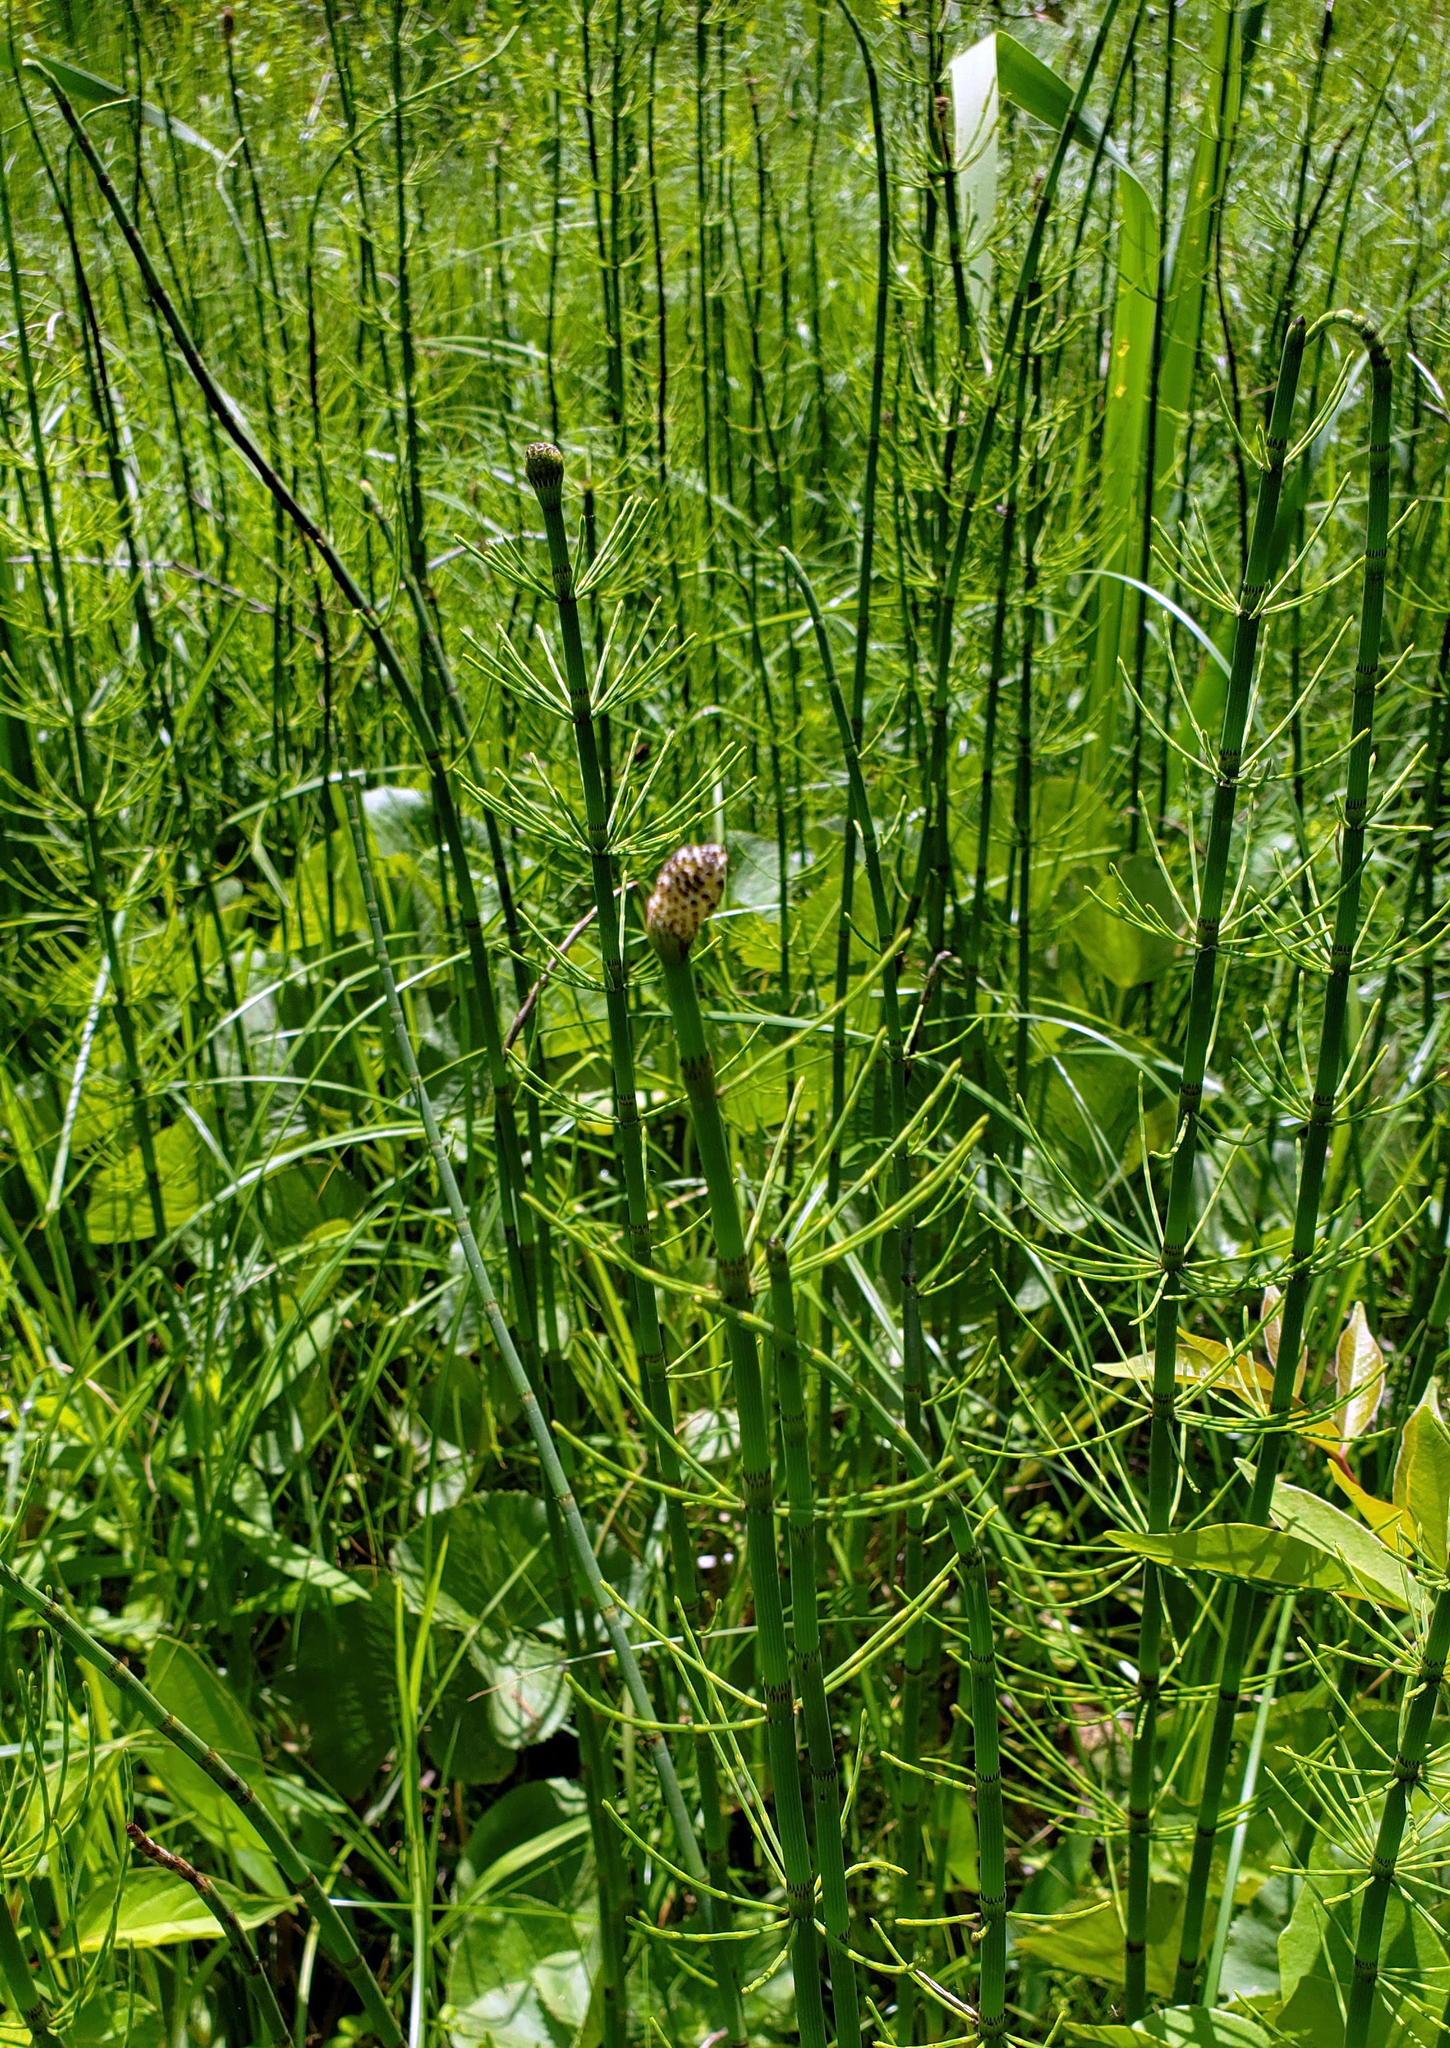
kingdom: Plantae
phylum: Tracheophyta
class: Polypodiopsida
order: Equisetales
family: Equisetaceae
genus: Equisetum
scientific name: Equisetum fluviatile
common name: Water horsetail
